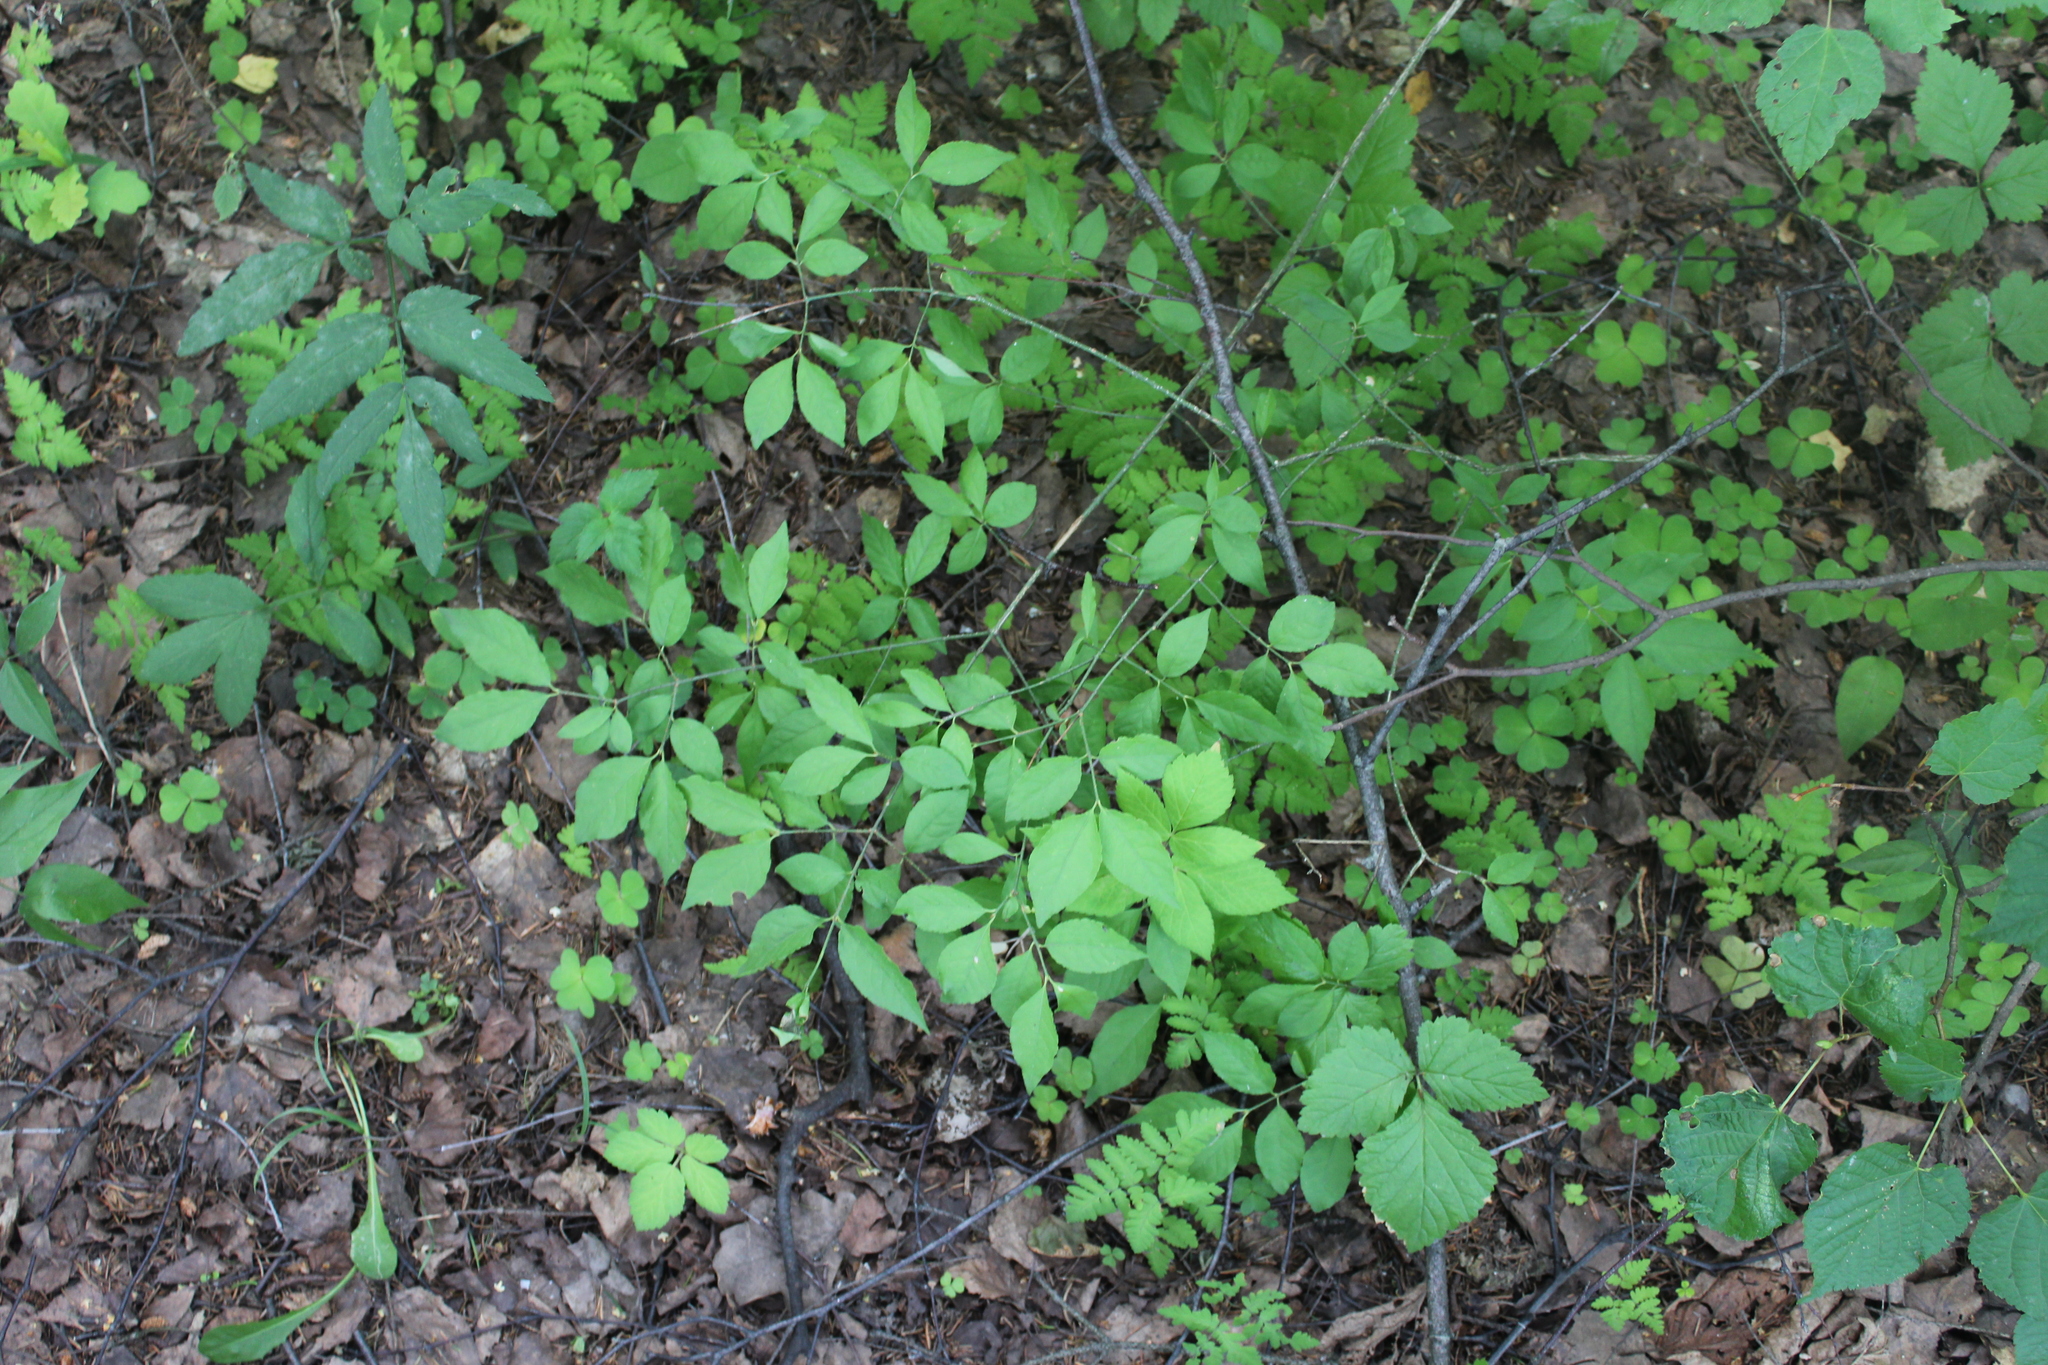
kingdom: Plantae
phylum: Tracheophyta
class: Magnoliopsida
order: Celastrales
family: Celastraceae
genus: Euonymus
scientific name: Euonymus verrucosus
